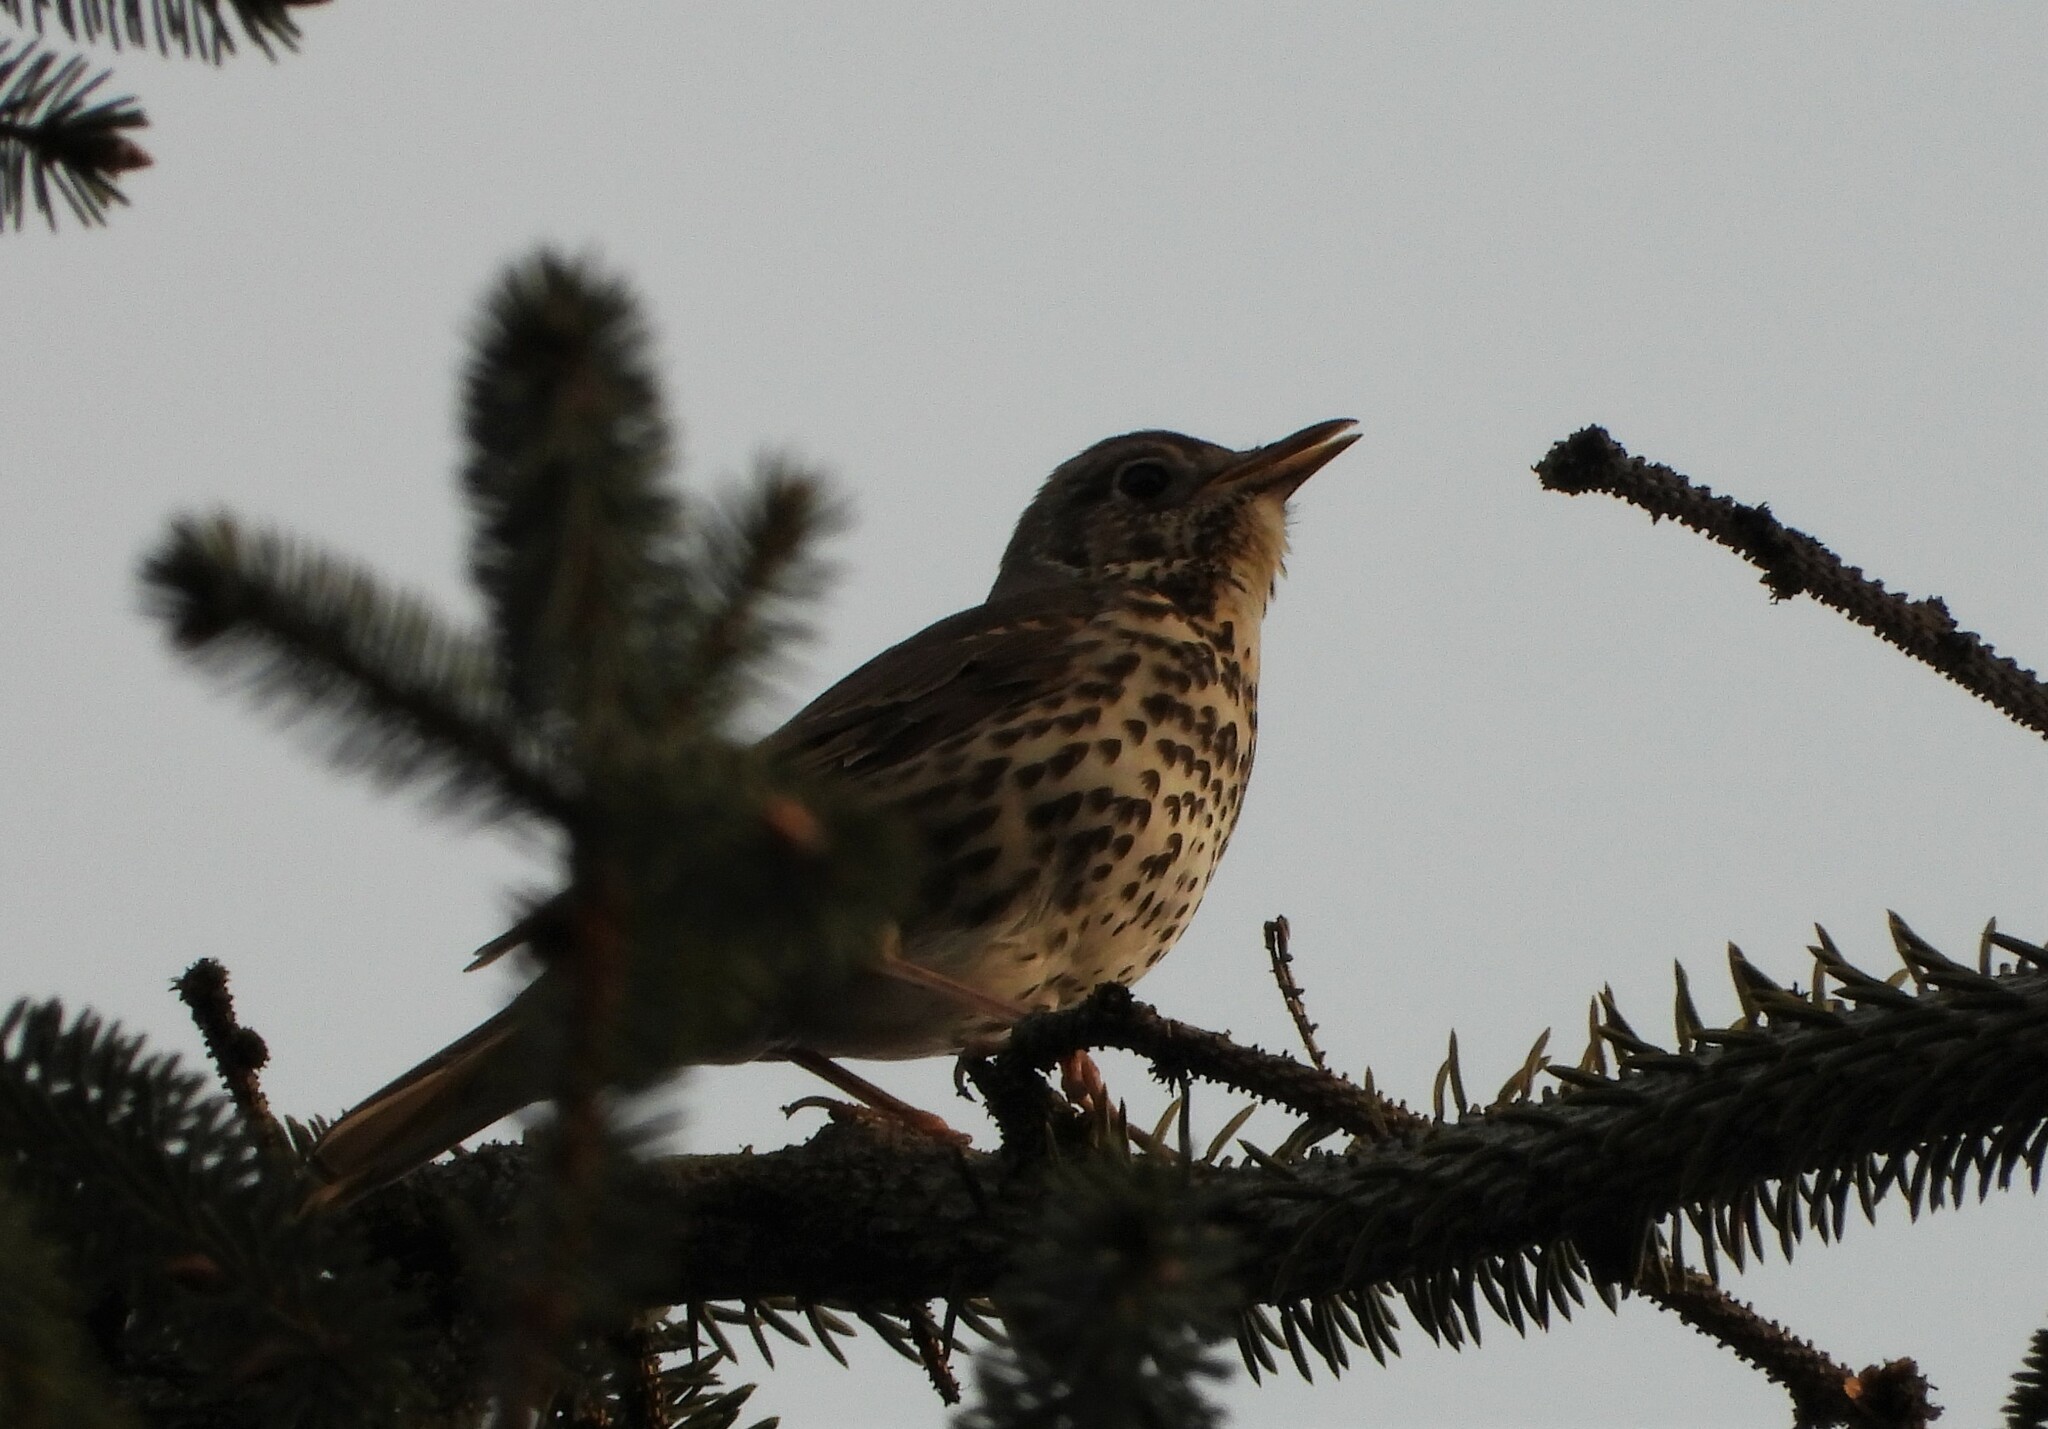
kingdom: Animalia
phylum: Chordata
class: Aves
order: Passeriformes
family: Turdidae
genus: Turdus
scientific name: Turdus philomelos
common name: Song thrush
